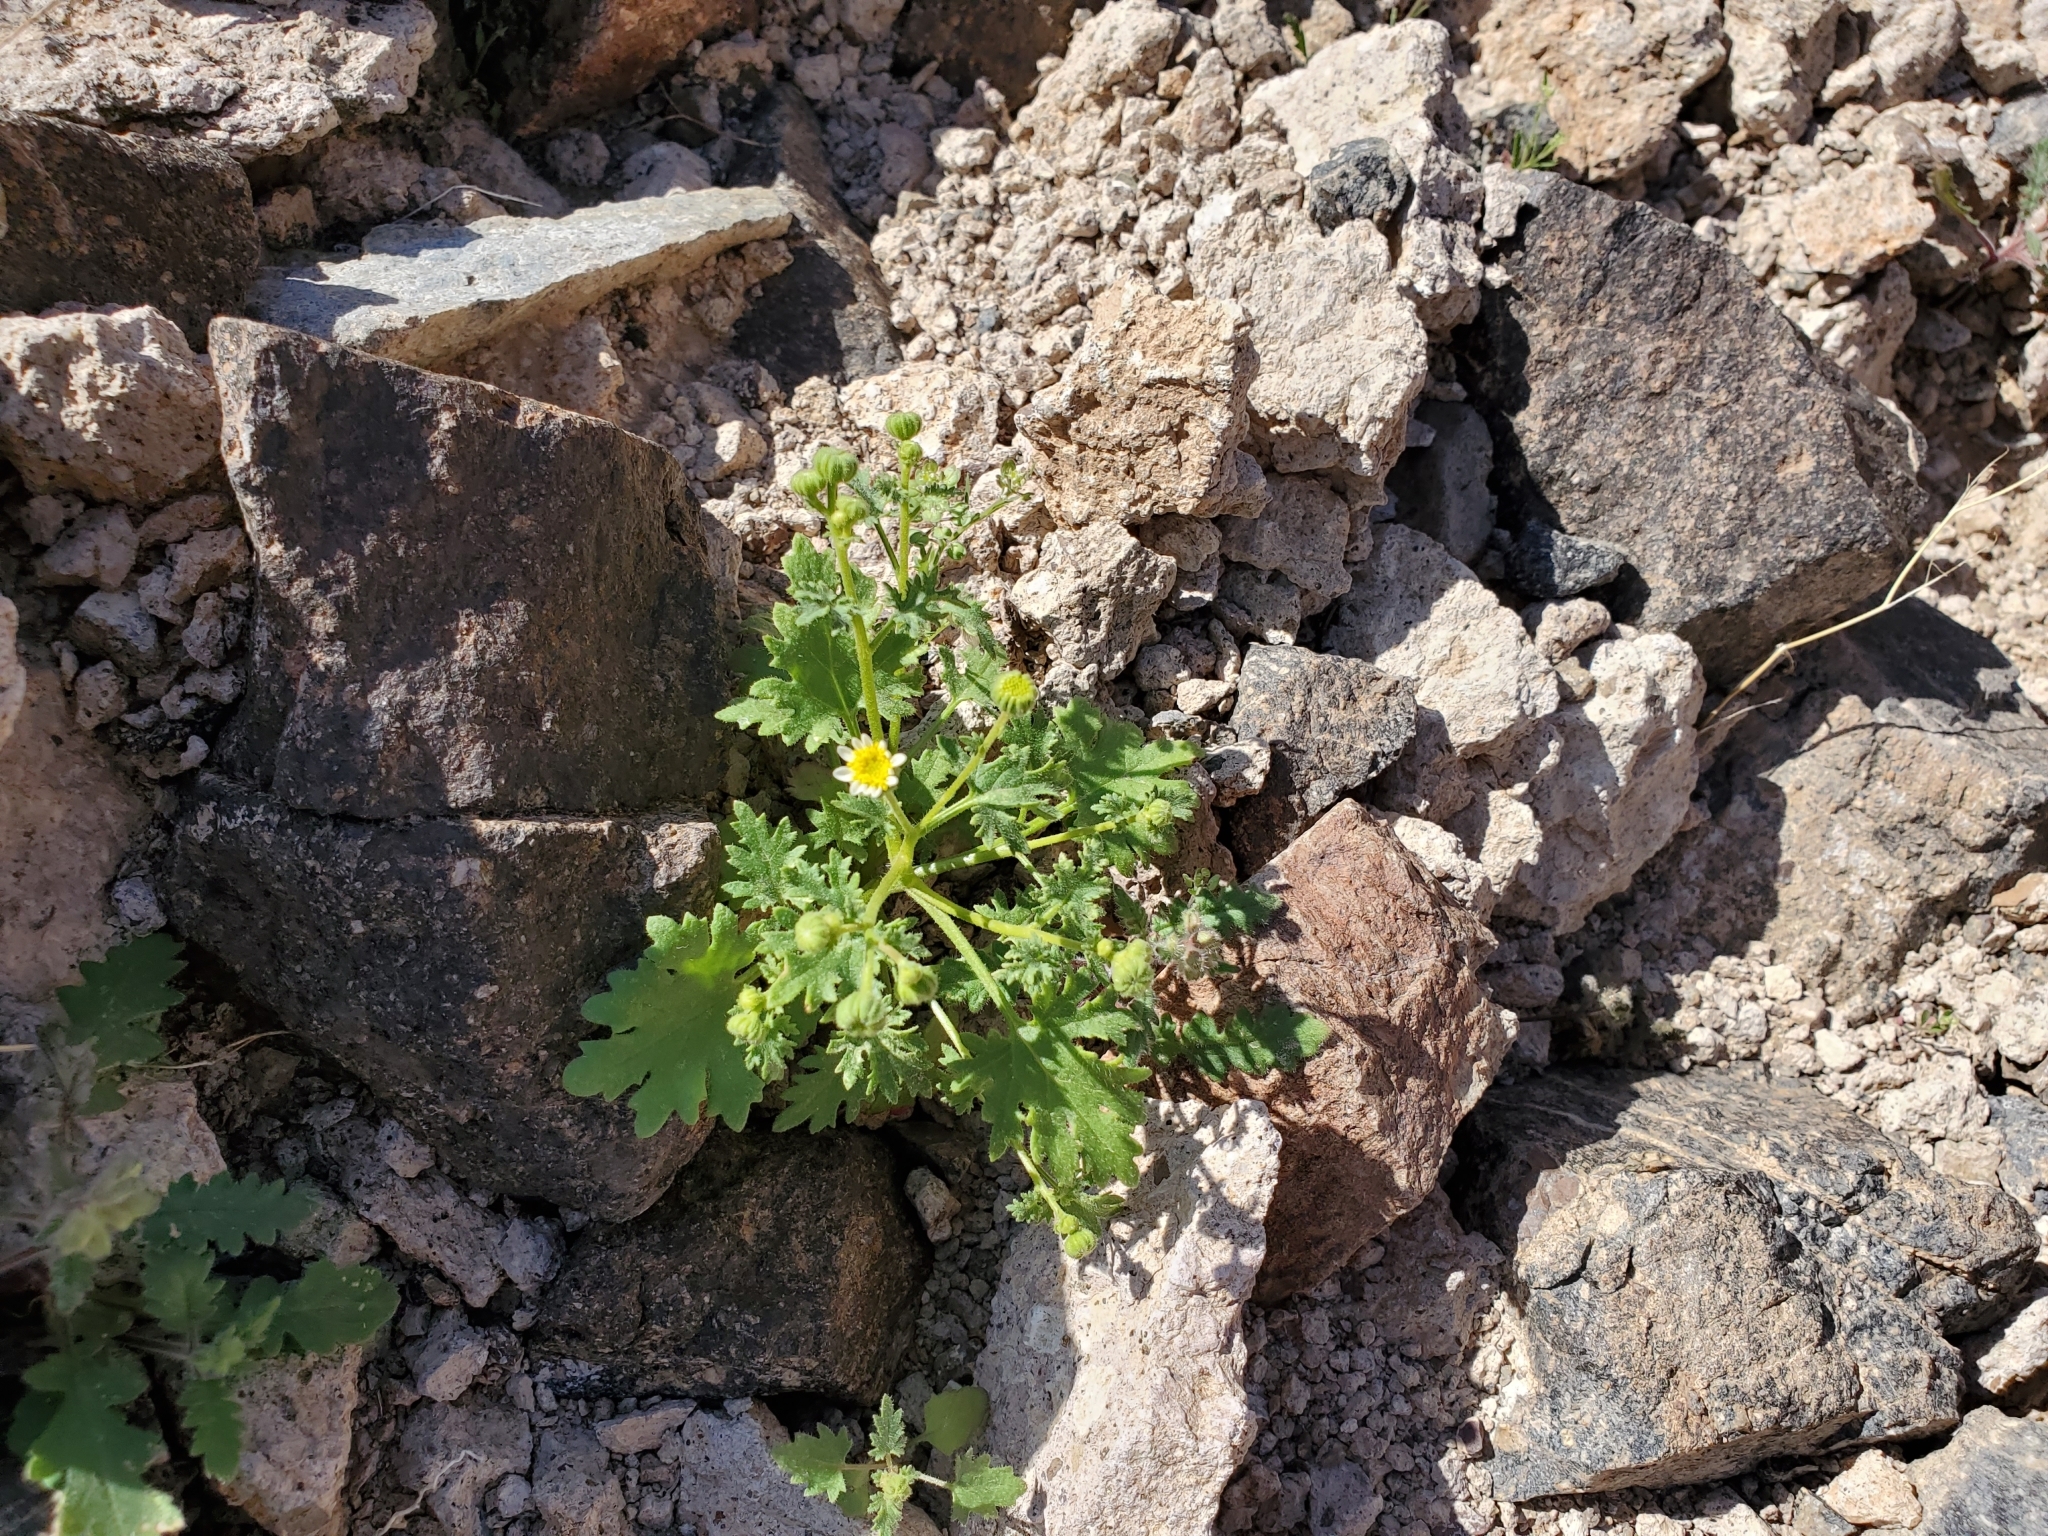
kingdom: Plantae
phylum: Tracheophyta
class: Magnoliopsida
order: Asterales
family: Asteraceae
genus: Laphamia
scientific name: Laphamia emoryi
